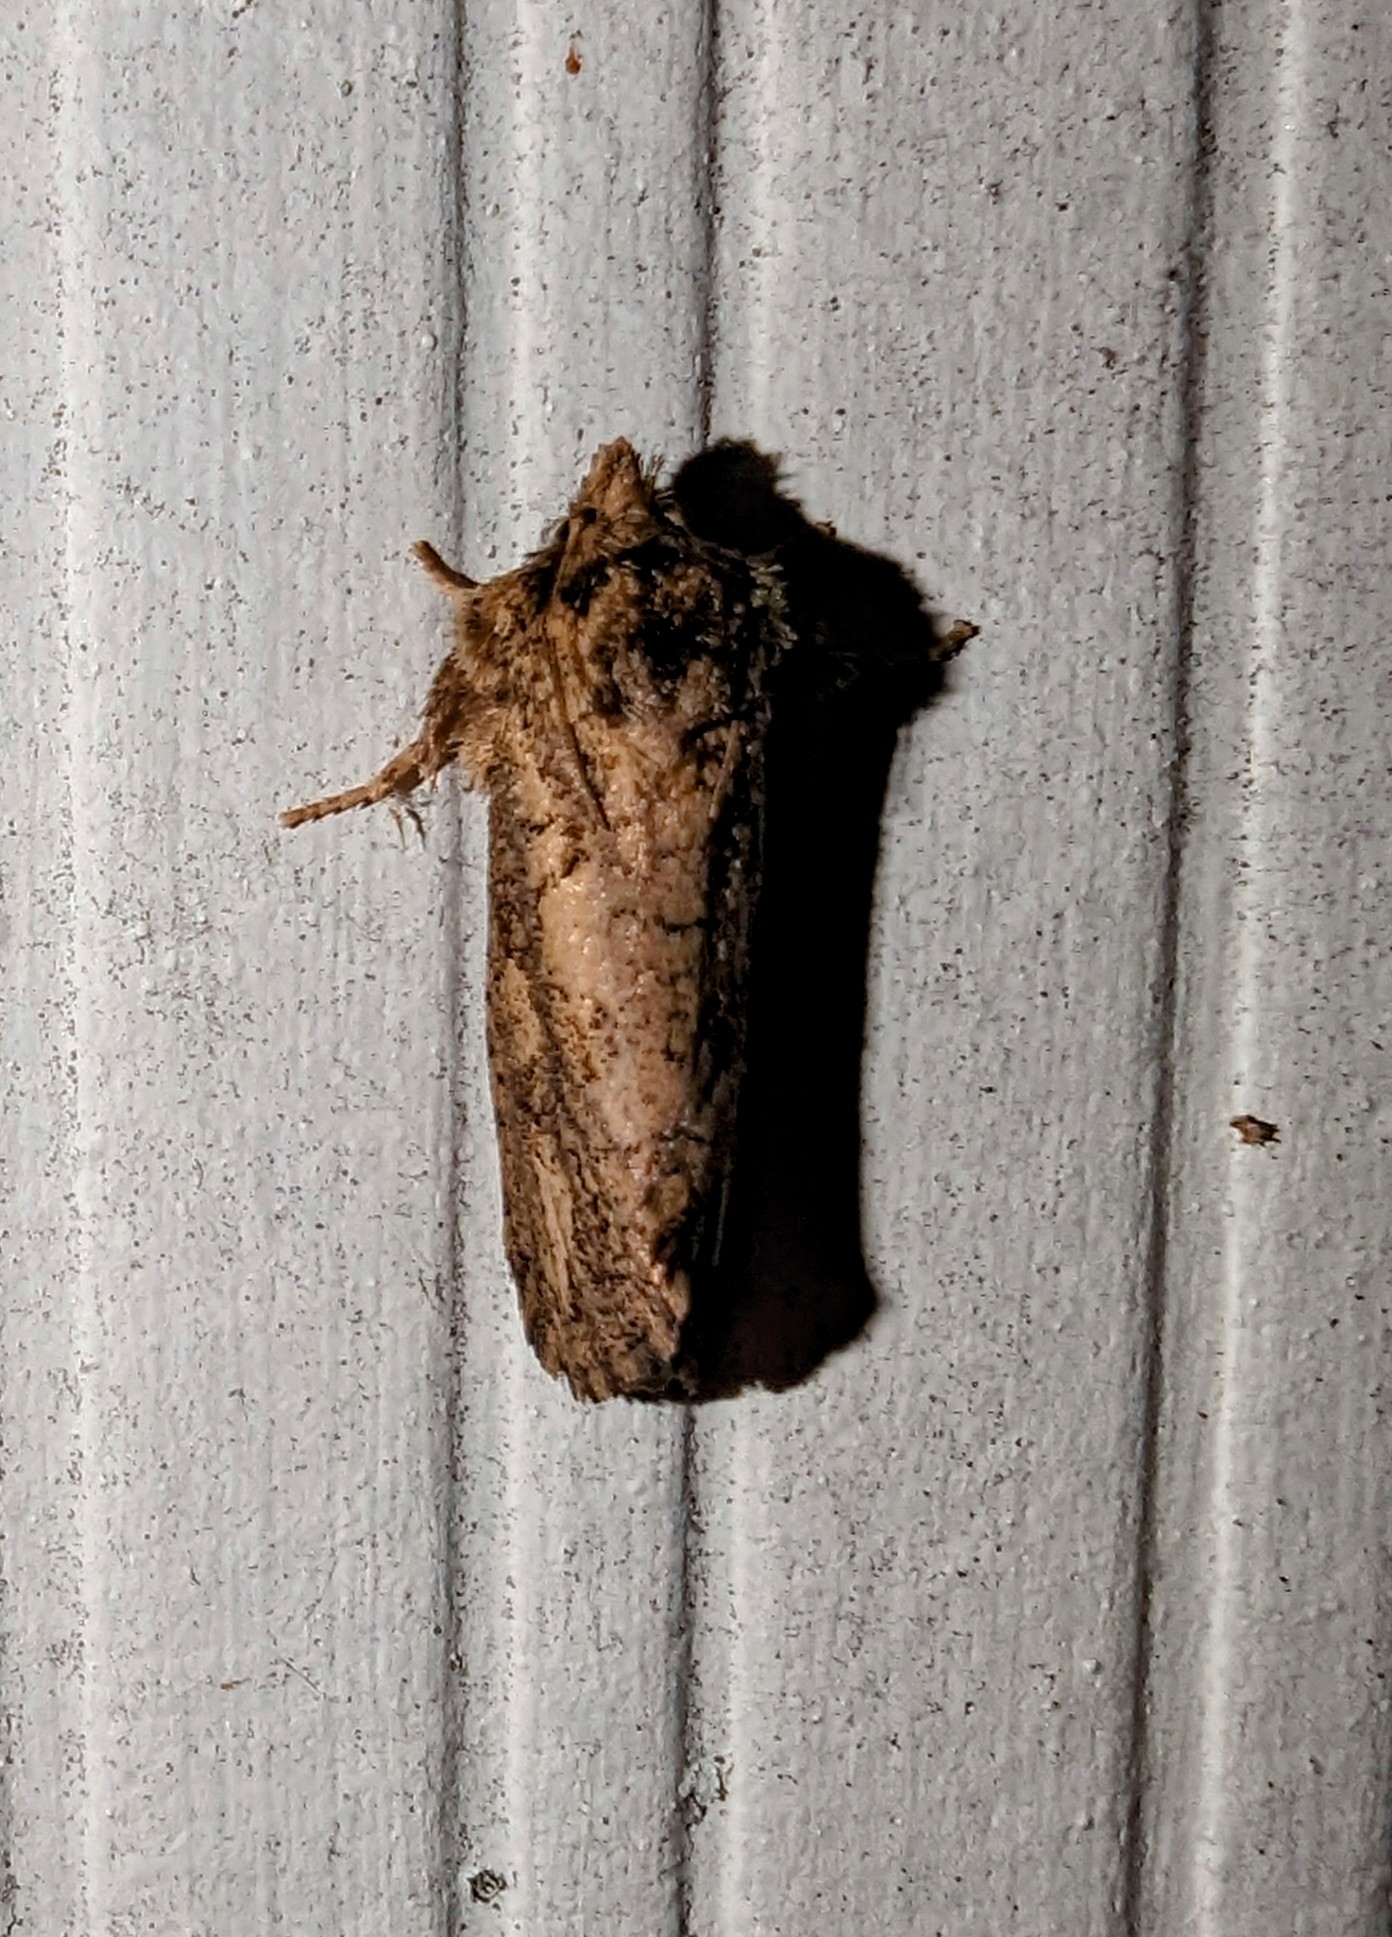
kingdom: Animalia
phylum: Arthropoda
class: Insecta
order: Lepidoptera
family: Tineidae
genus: Acrolophus
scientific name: Acrolophus arcanella
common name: Arcane grass tubeworm moth
